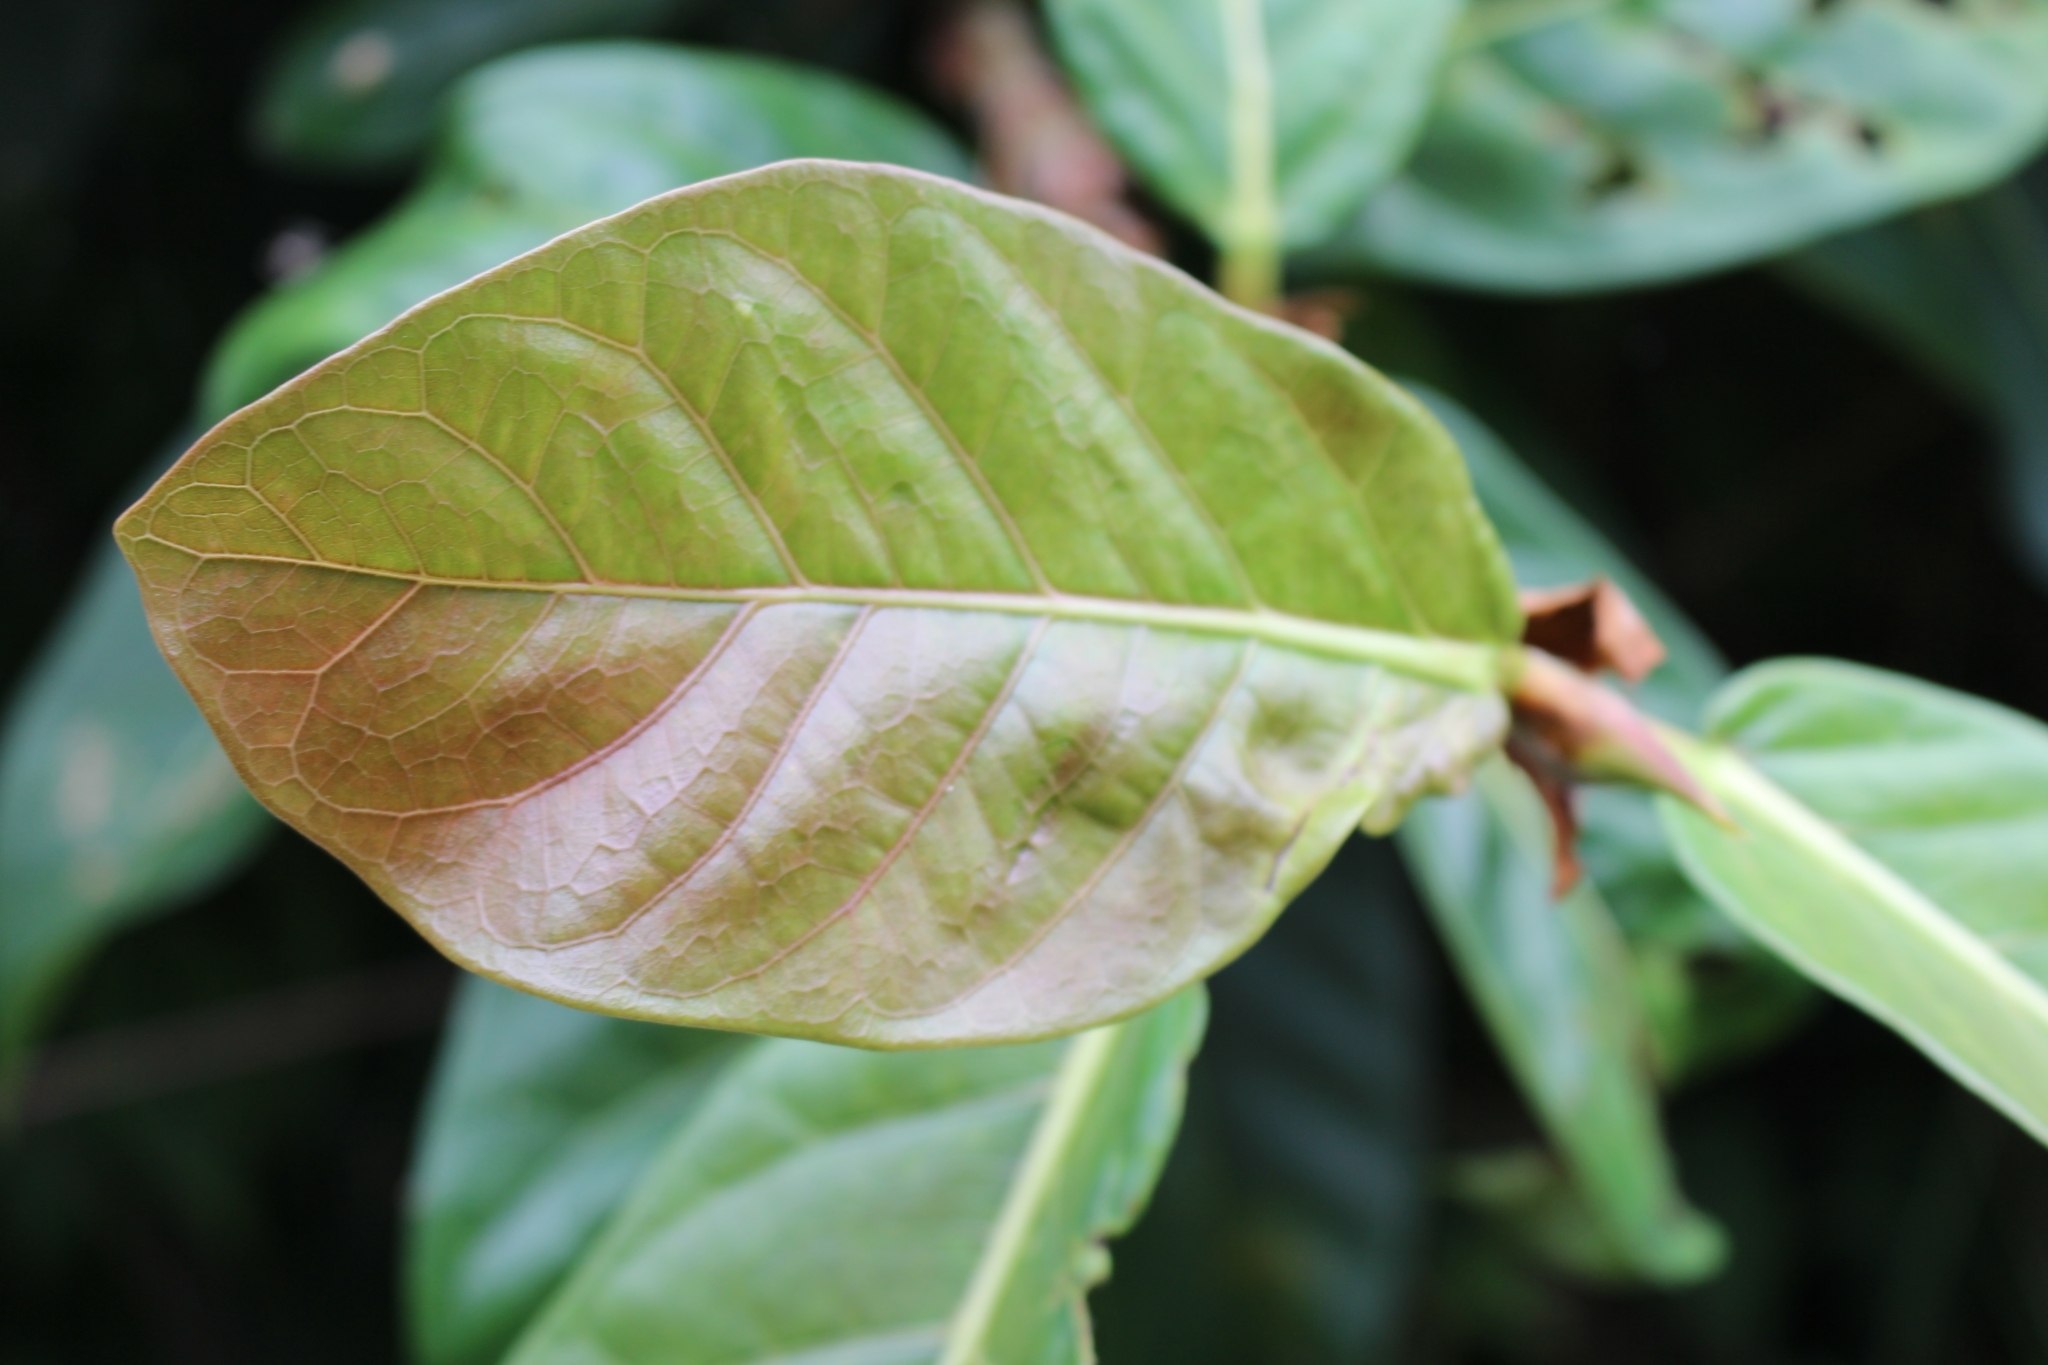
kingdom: Plantae
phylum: Tracheophyta
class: Magnoliopsida
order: Rosales
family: Moraceae
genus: Ficus
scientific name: Ficus costaricana
